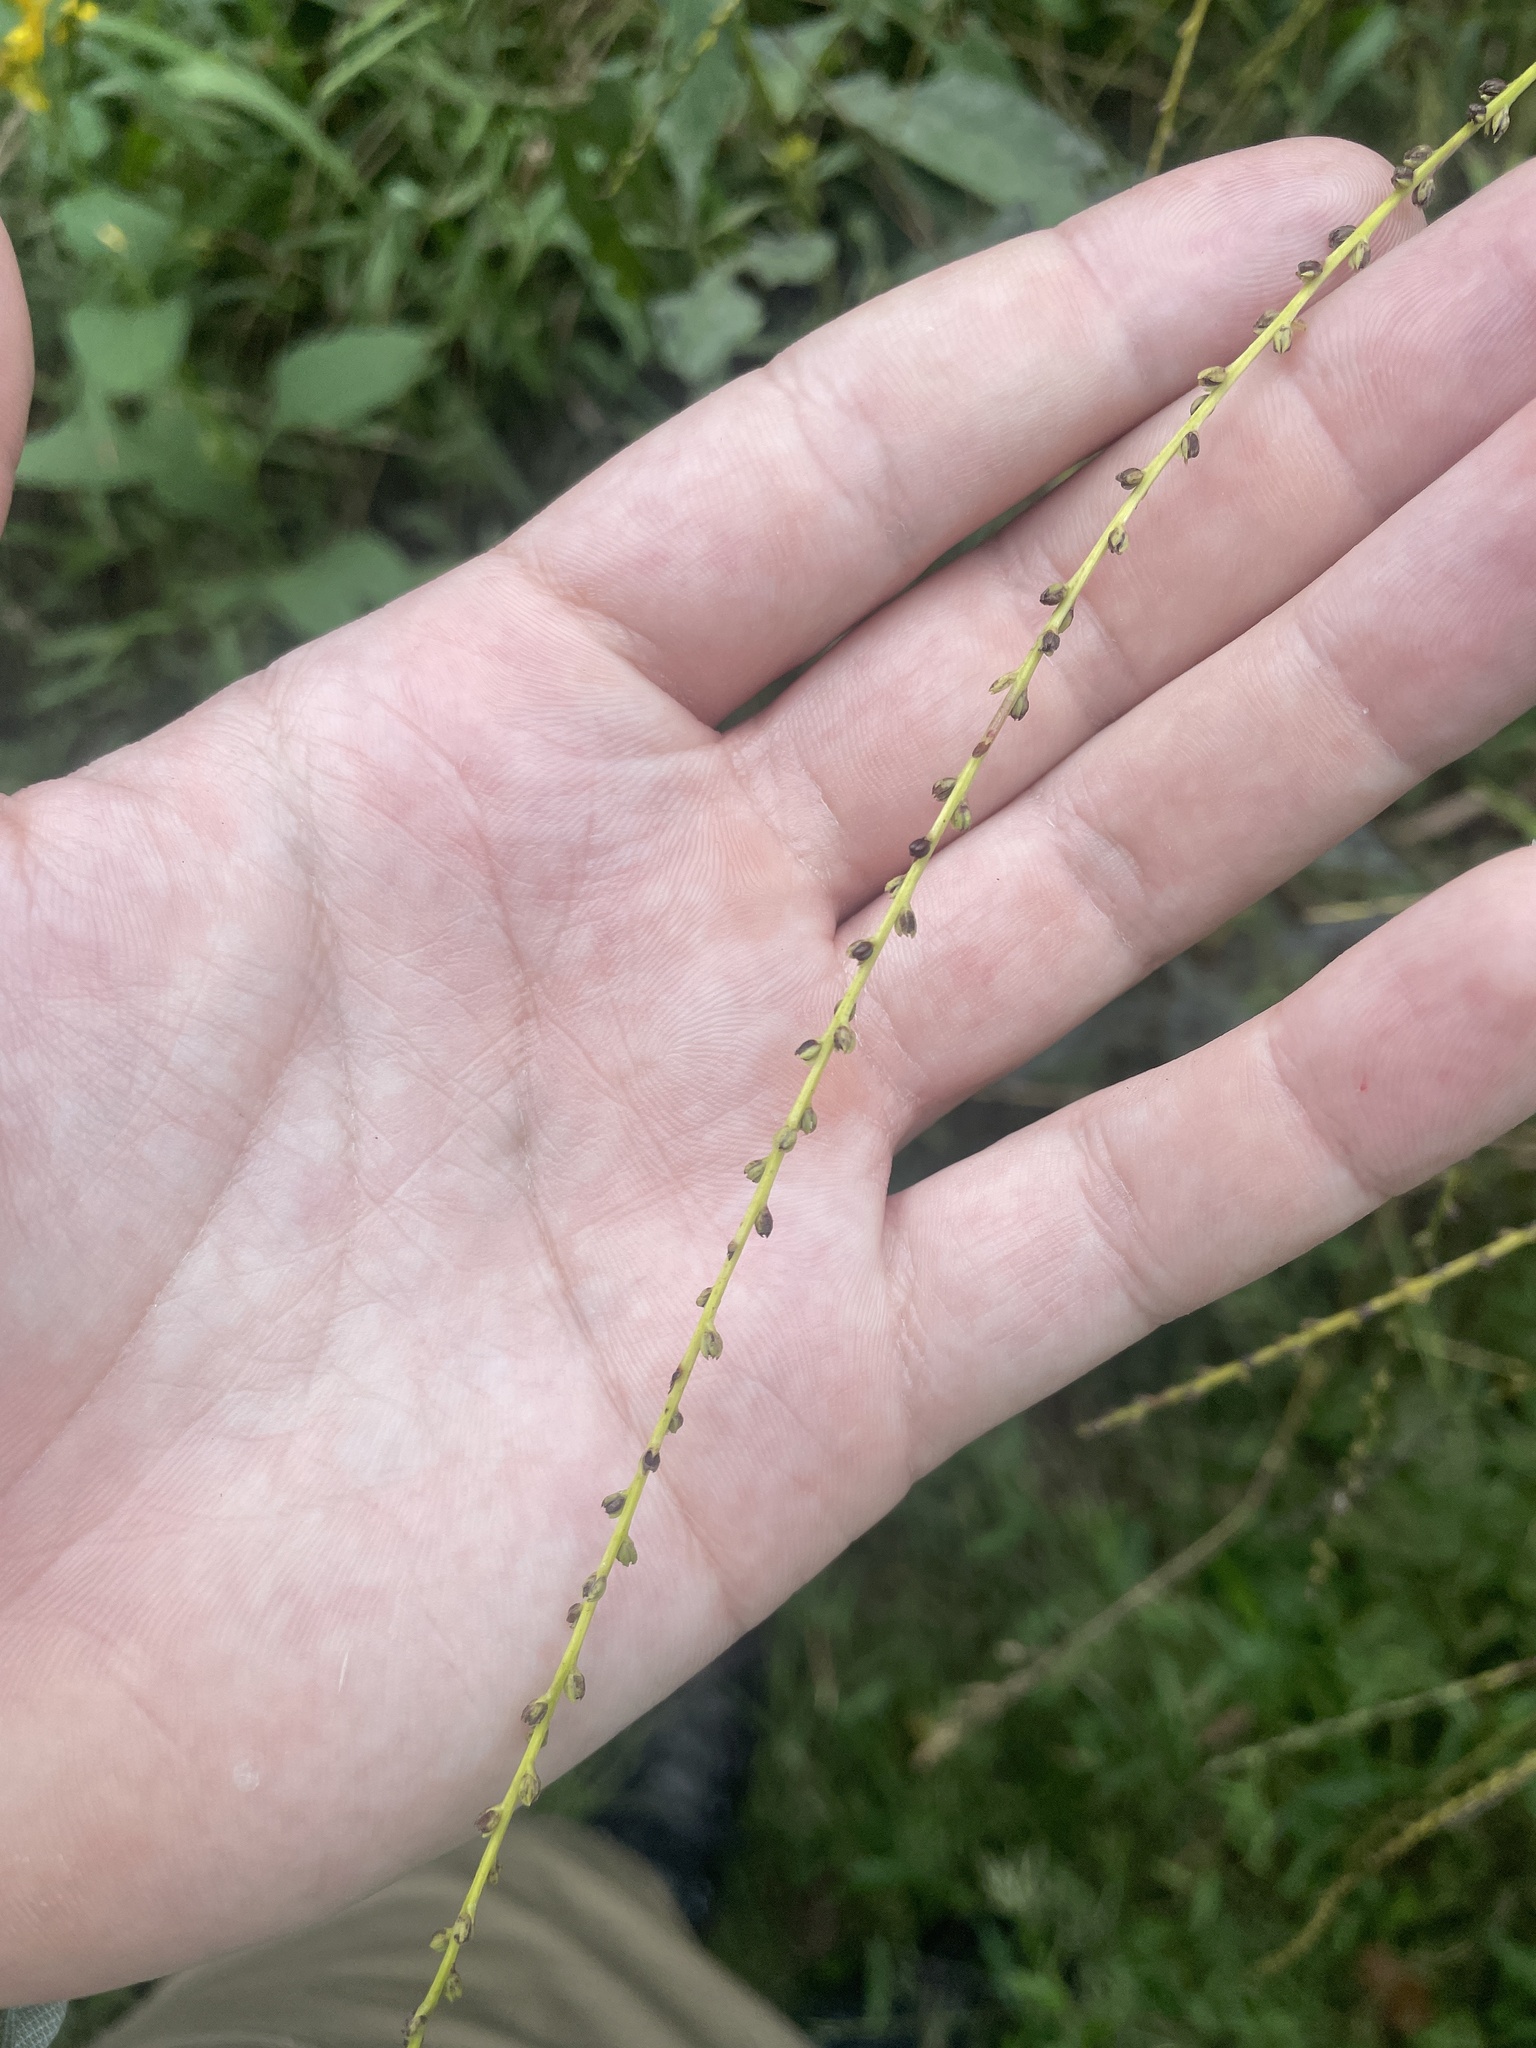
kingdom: Plantae
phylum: Tracheophyta
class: Magnoliopsida
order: Lamiales
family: Verbenaceae
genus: Verbena
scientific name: Verbena urticifolia
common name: Nettle-leaved vervain
